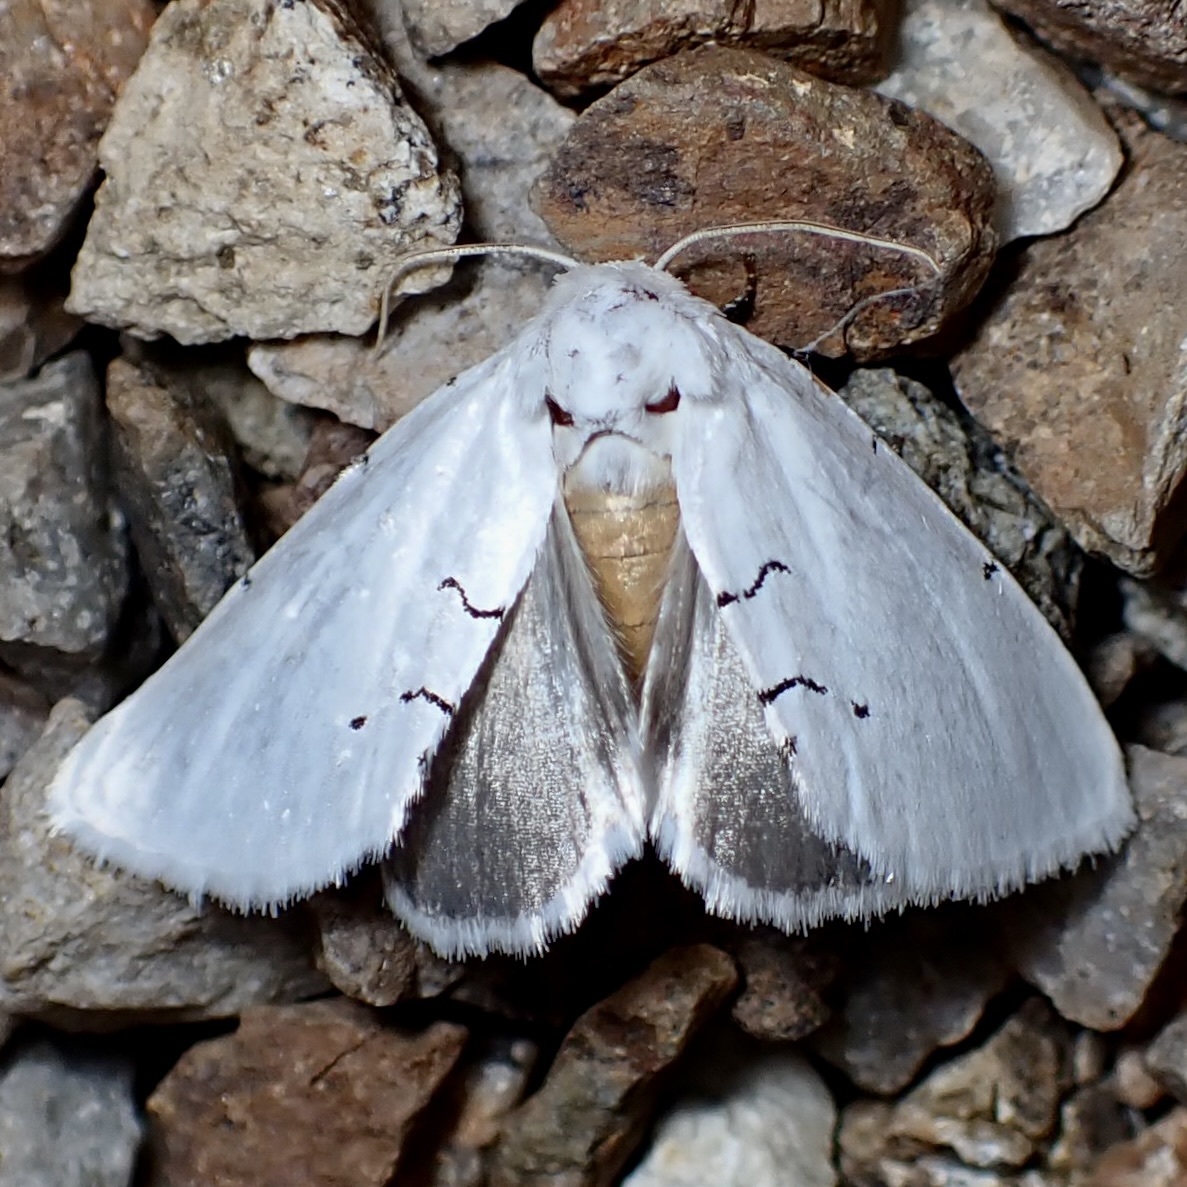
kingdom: Animalia
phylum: Arthropoda
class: Insecta
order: Lepidoptera
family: Noctuidae
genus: Hemioslaria
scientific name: Hemioslaria pima
